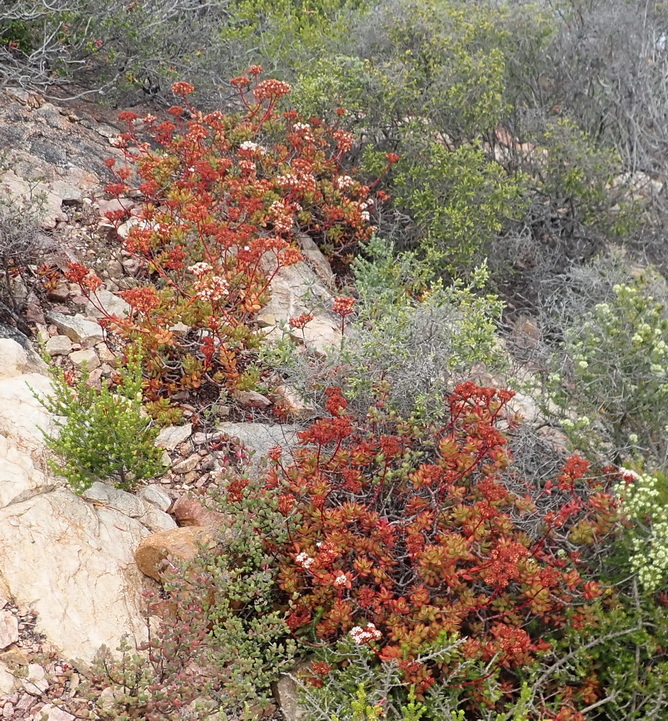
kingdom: Plantae
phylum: Tracheophyta
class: Magnoliopsida
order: Saxifragales
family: Crassulaceae
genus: Crassula
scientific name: Crassula rubricaulis
